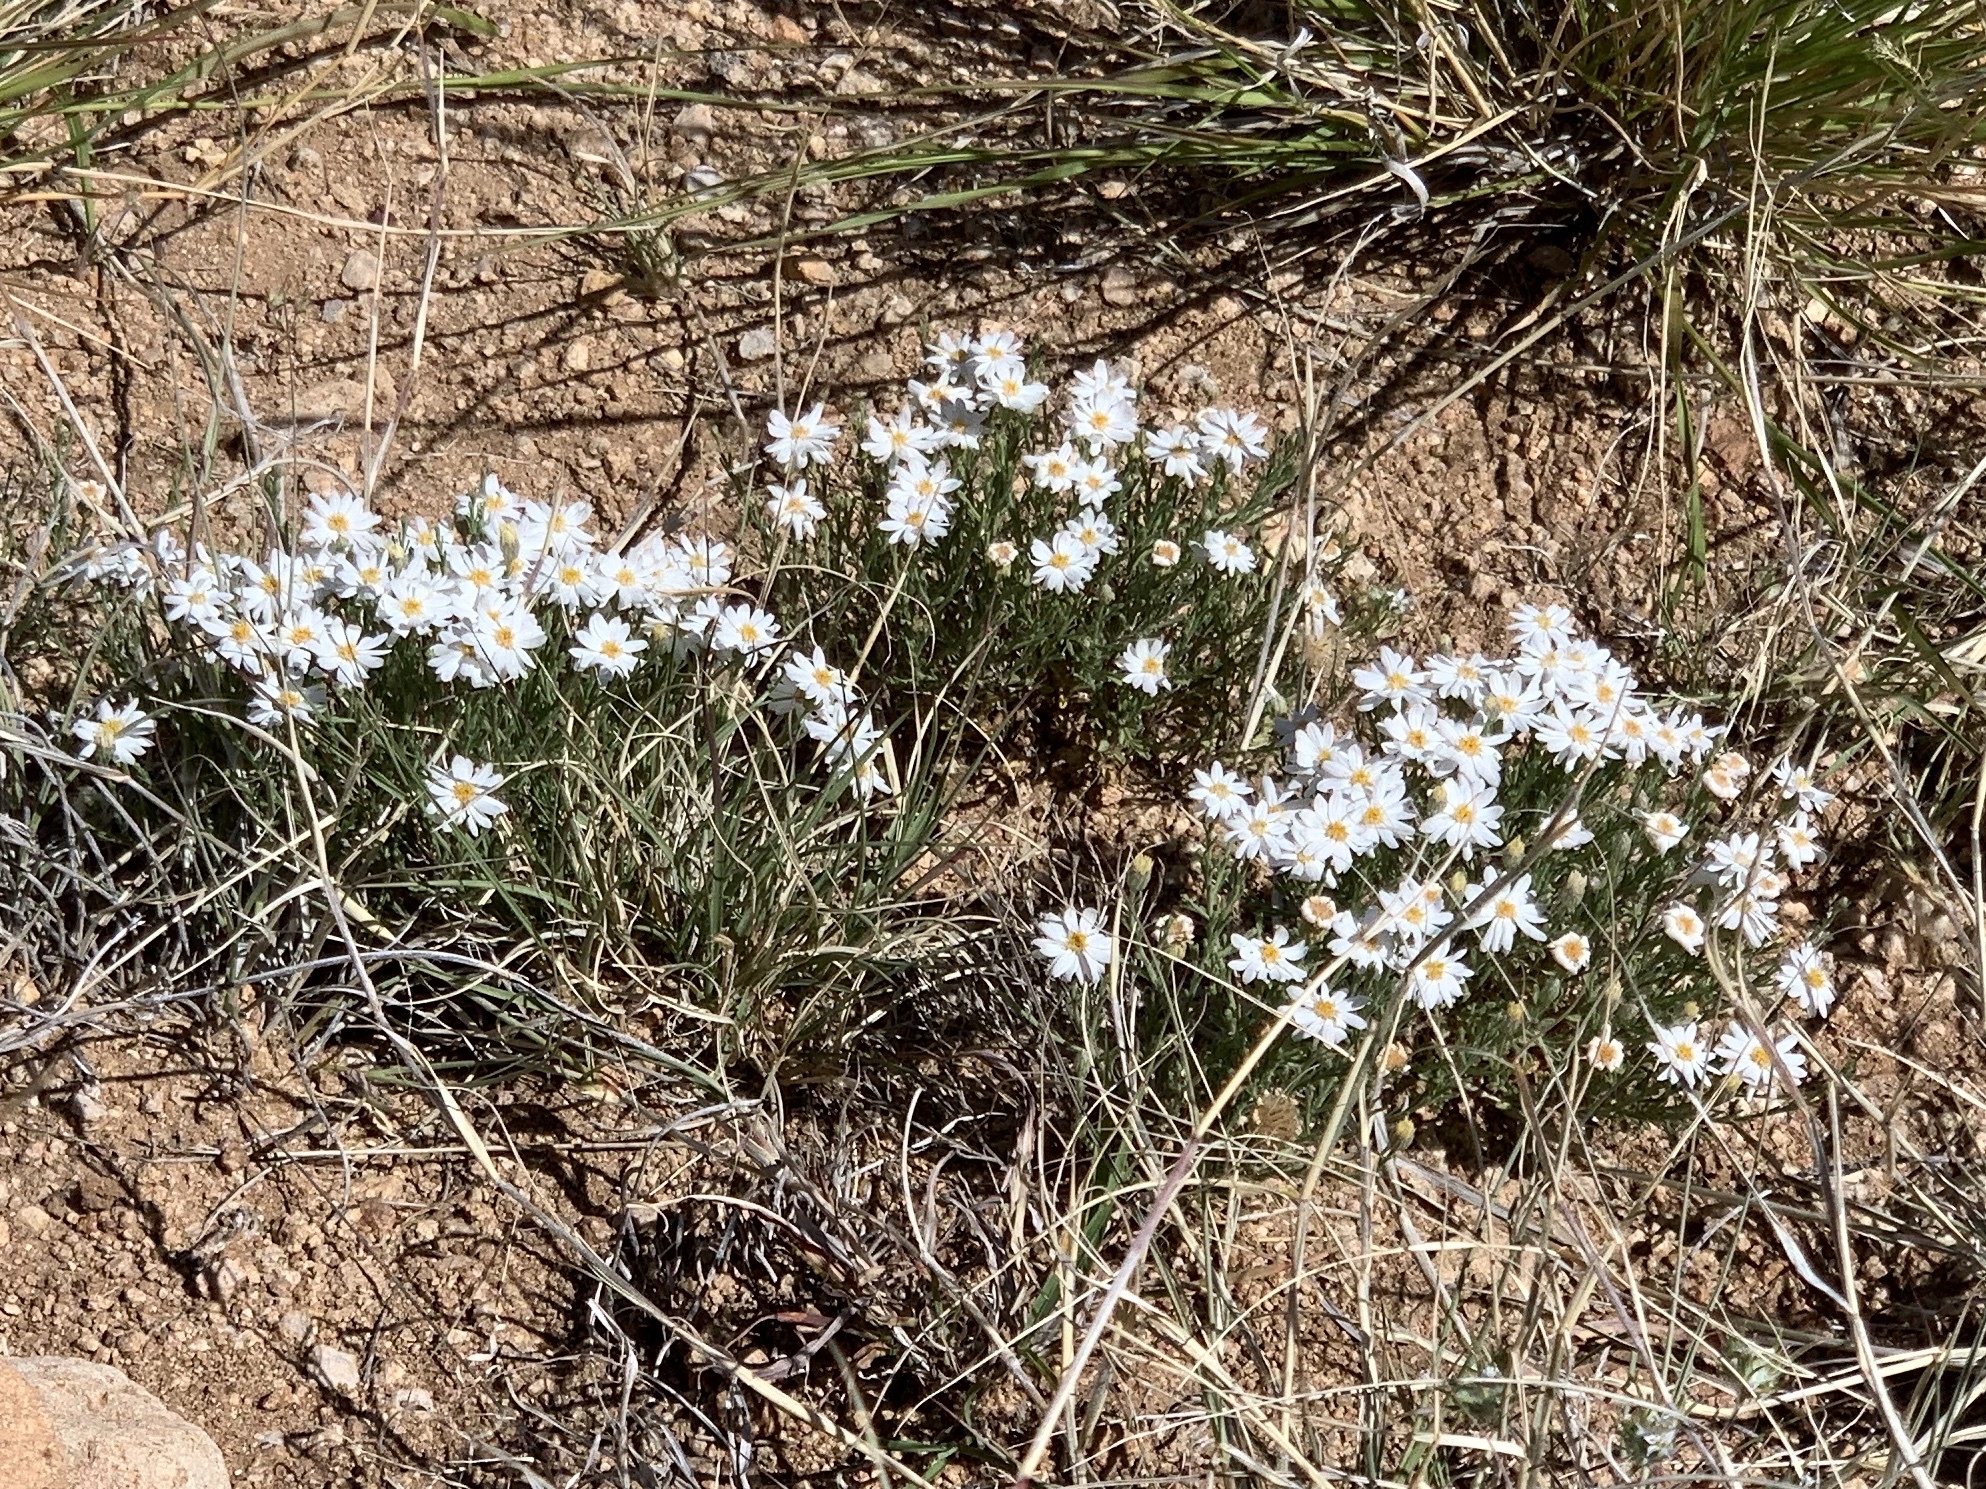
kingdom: Plantae
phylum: Tracheophyta
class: Magnoliopsida
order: Asterales
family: Asteraceae
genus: Melampodium
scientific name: Melampodium leucanthum
